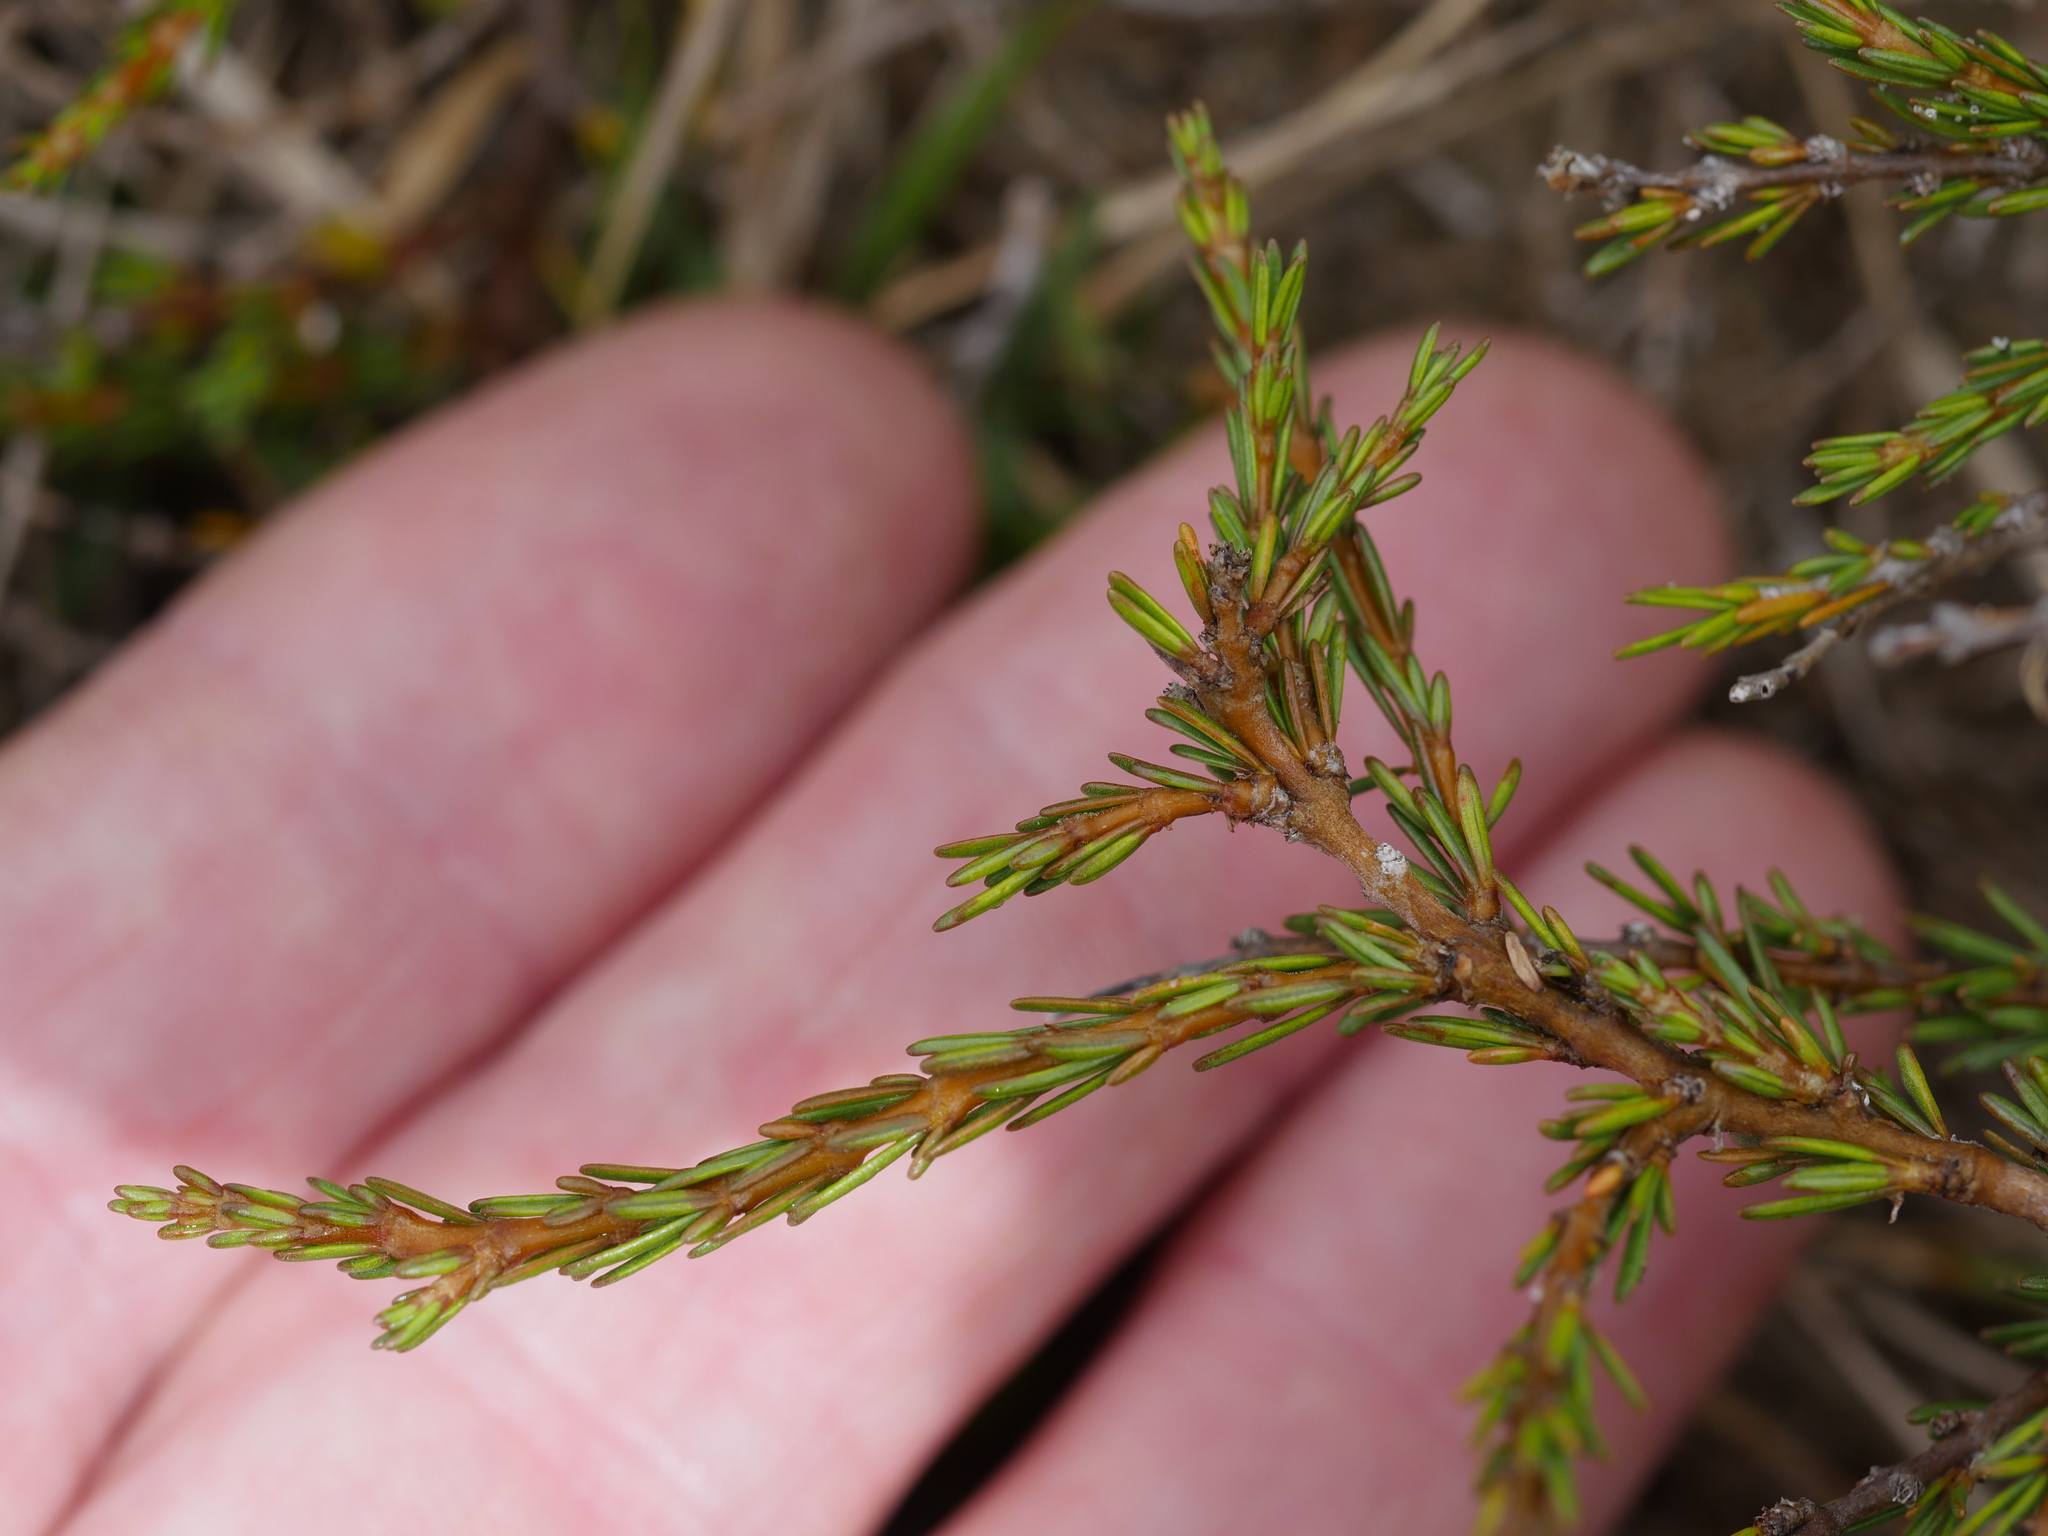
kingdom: Plantae
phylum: Tracheophyta
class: Magnoliopsida
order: Gentianales
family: Rubiaceae
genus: Coprosma
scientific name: Coprosma acerosa
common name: Sand coprosma
